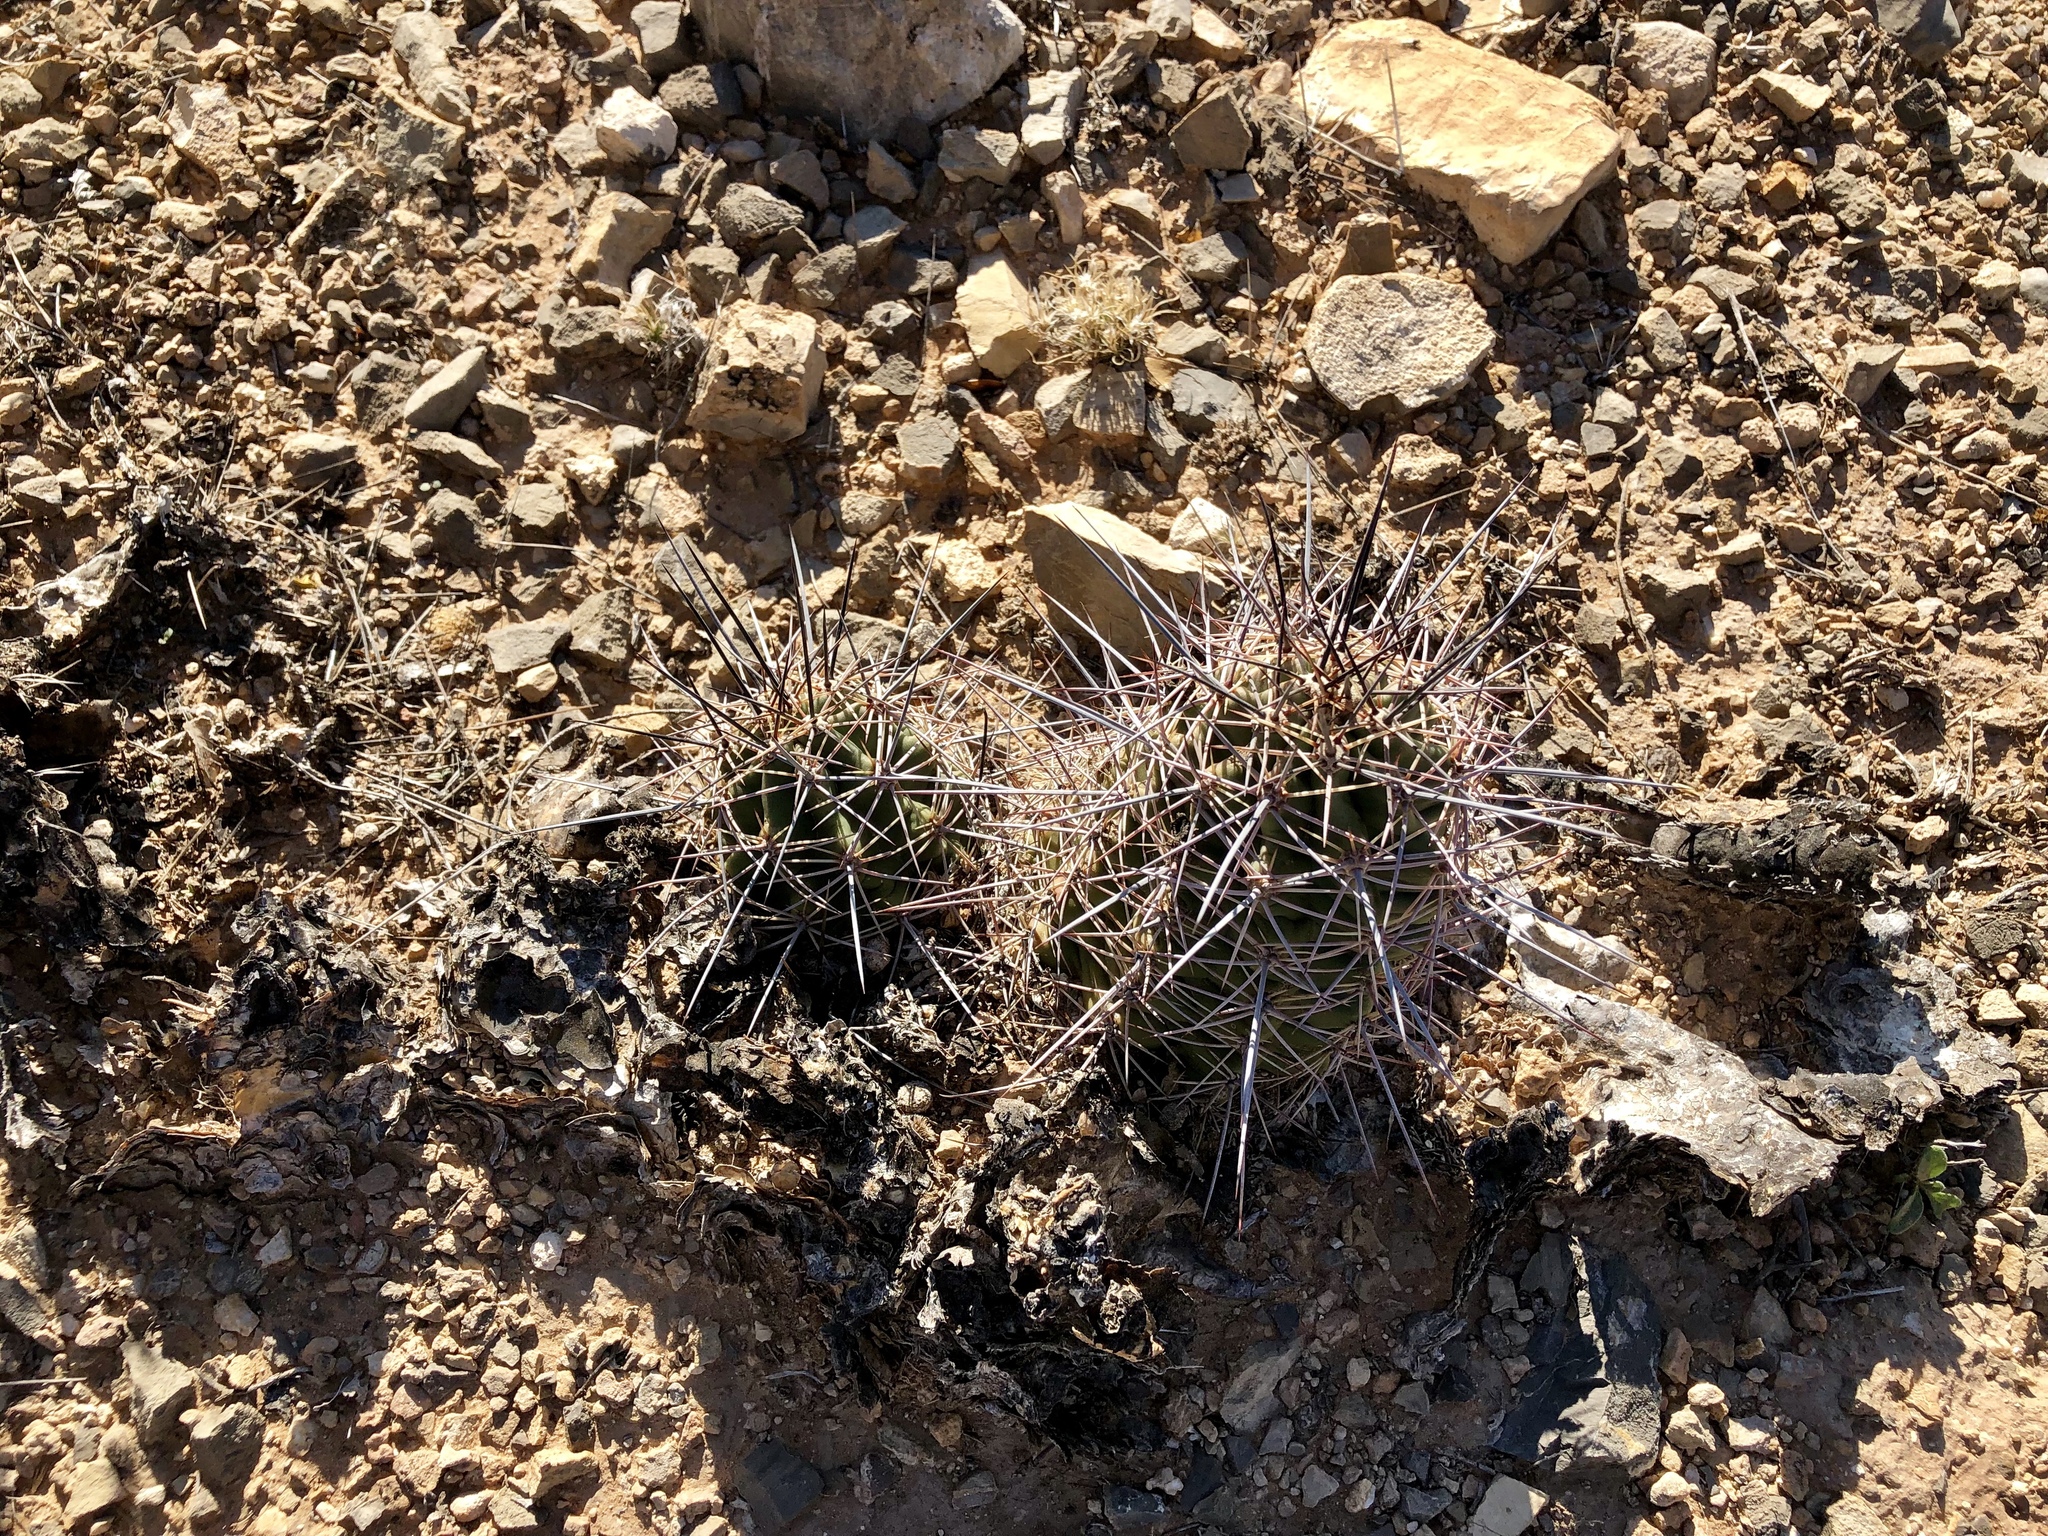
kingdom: Plantae
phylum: Tracheophyta
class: Magnoliopsida
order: Caryophyllales
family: Cactaceae
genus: Echinocereus
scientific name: Echinocereus coccineus
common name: Scarlet hedgehog cactus
